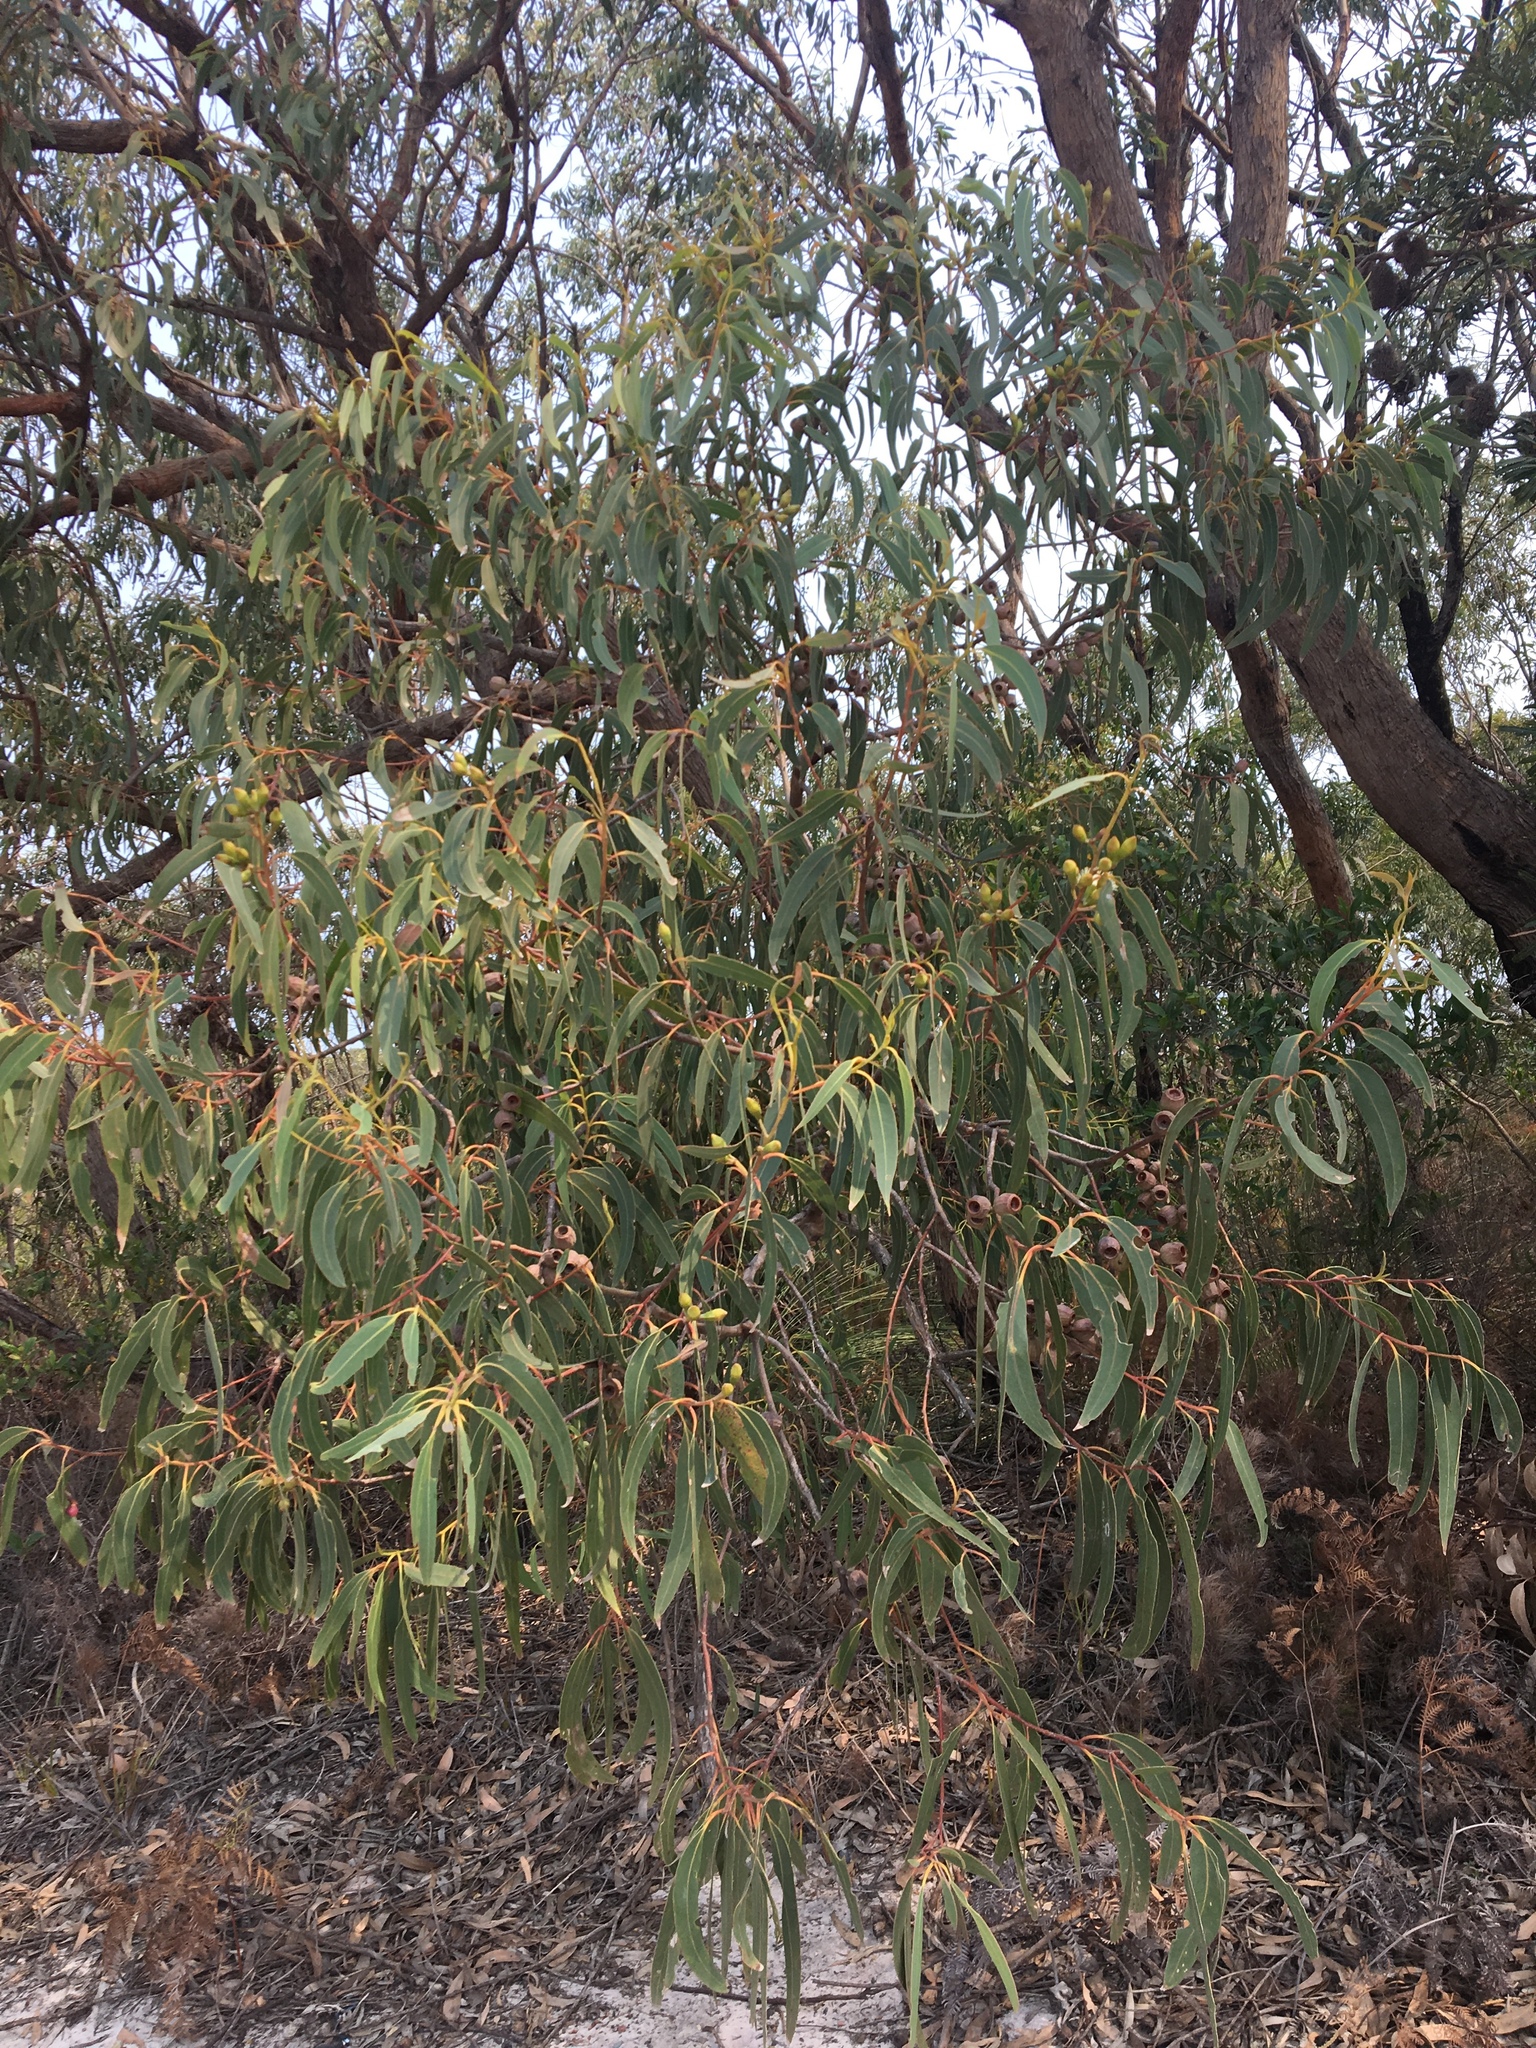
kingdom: Plantae
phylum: Tracheophyta
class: Magnoliopsida
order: Myrtales
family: Myrtaceae
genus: Eucalyptus
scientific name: Eucalyptus planchoniana
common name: Bastard-tallow-wood
